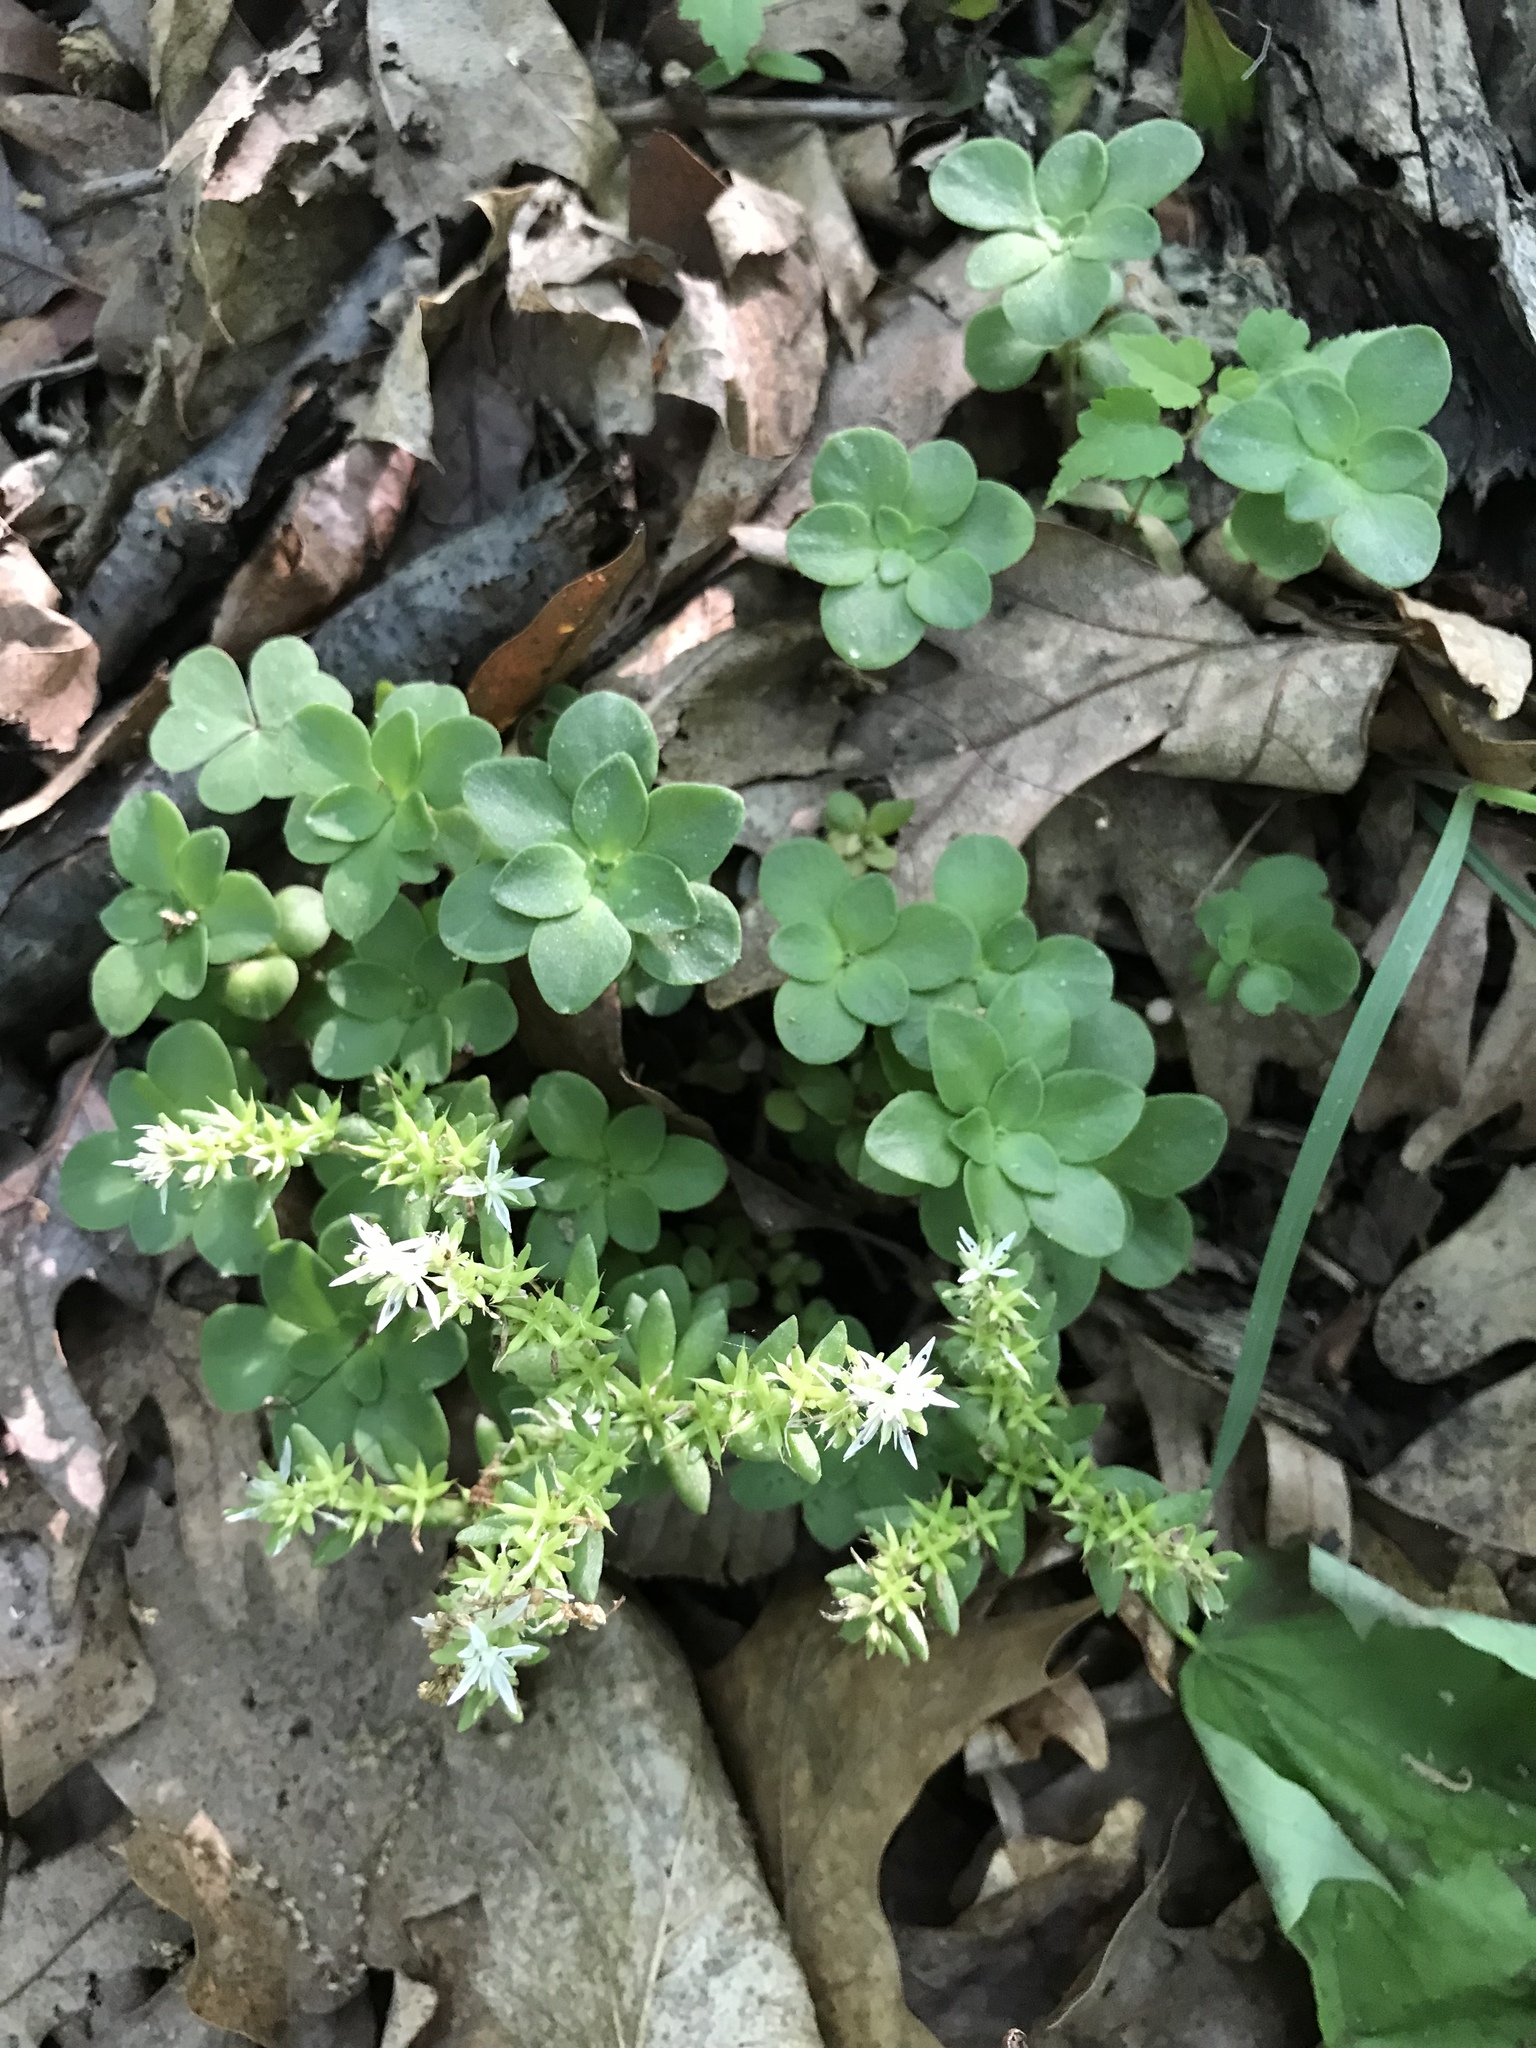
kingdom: Plantae
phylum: Tracheophyta
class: Magnoliopsida
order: Saxifragales
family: Crassulaceae
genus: Sedum
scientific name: Sedum ternatum
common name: Wild stonecrop
